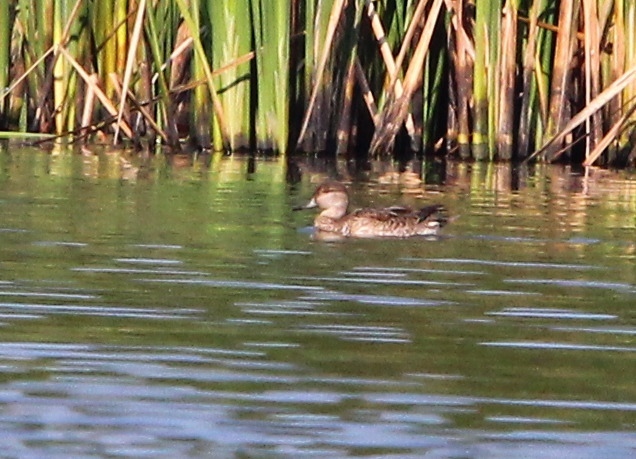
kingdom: Animalia
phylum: Chordata
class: Aves
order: Anseriformes
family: Anatidae
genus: Anas
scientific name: Anas crecca
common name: Eurasian teal
